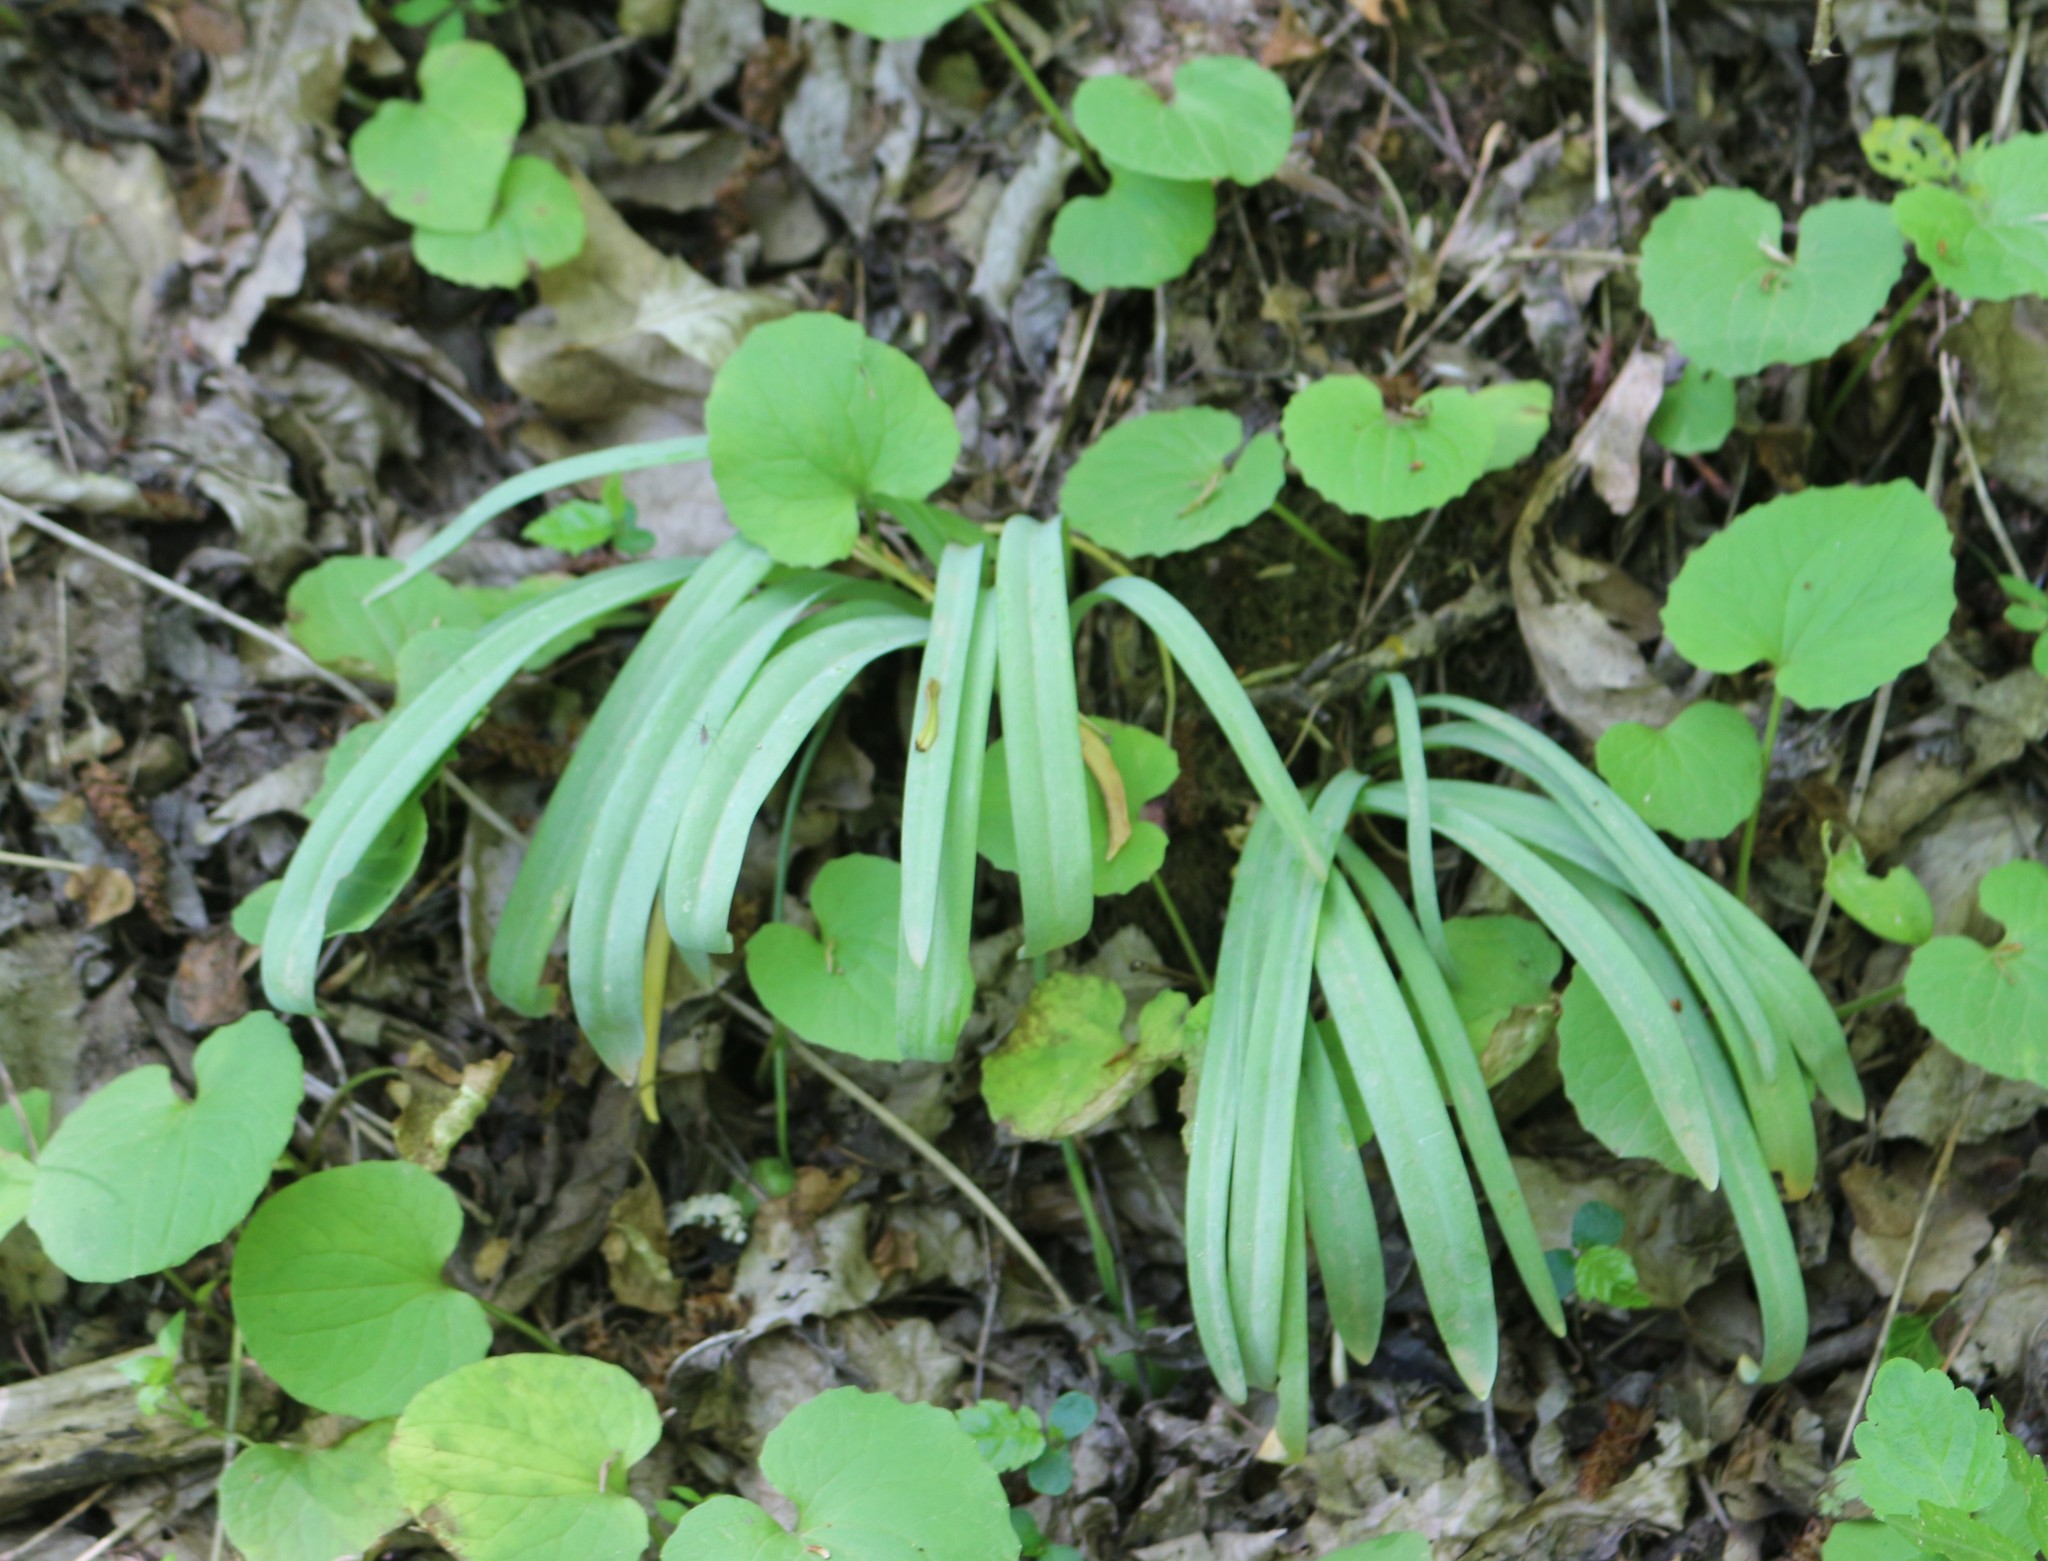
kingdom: Plantae
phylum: Tracheophyta
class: Liliopsida
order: Asparagales
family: Amaryllidaceae
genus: Galanthus
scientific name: Galanthus alpinus
